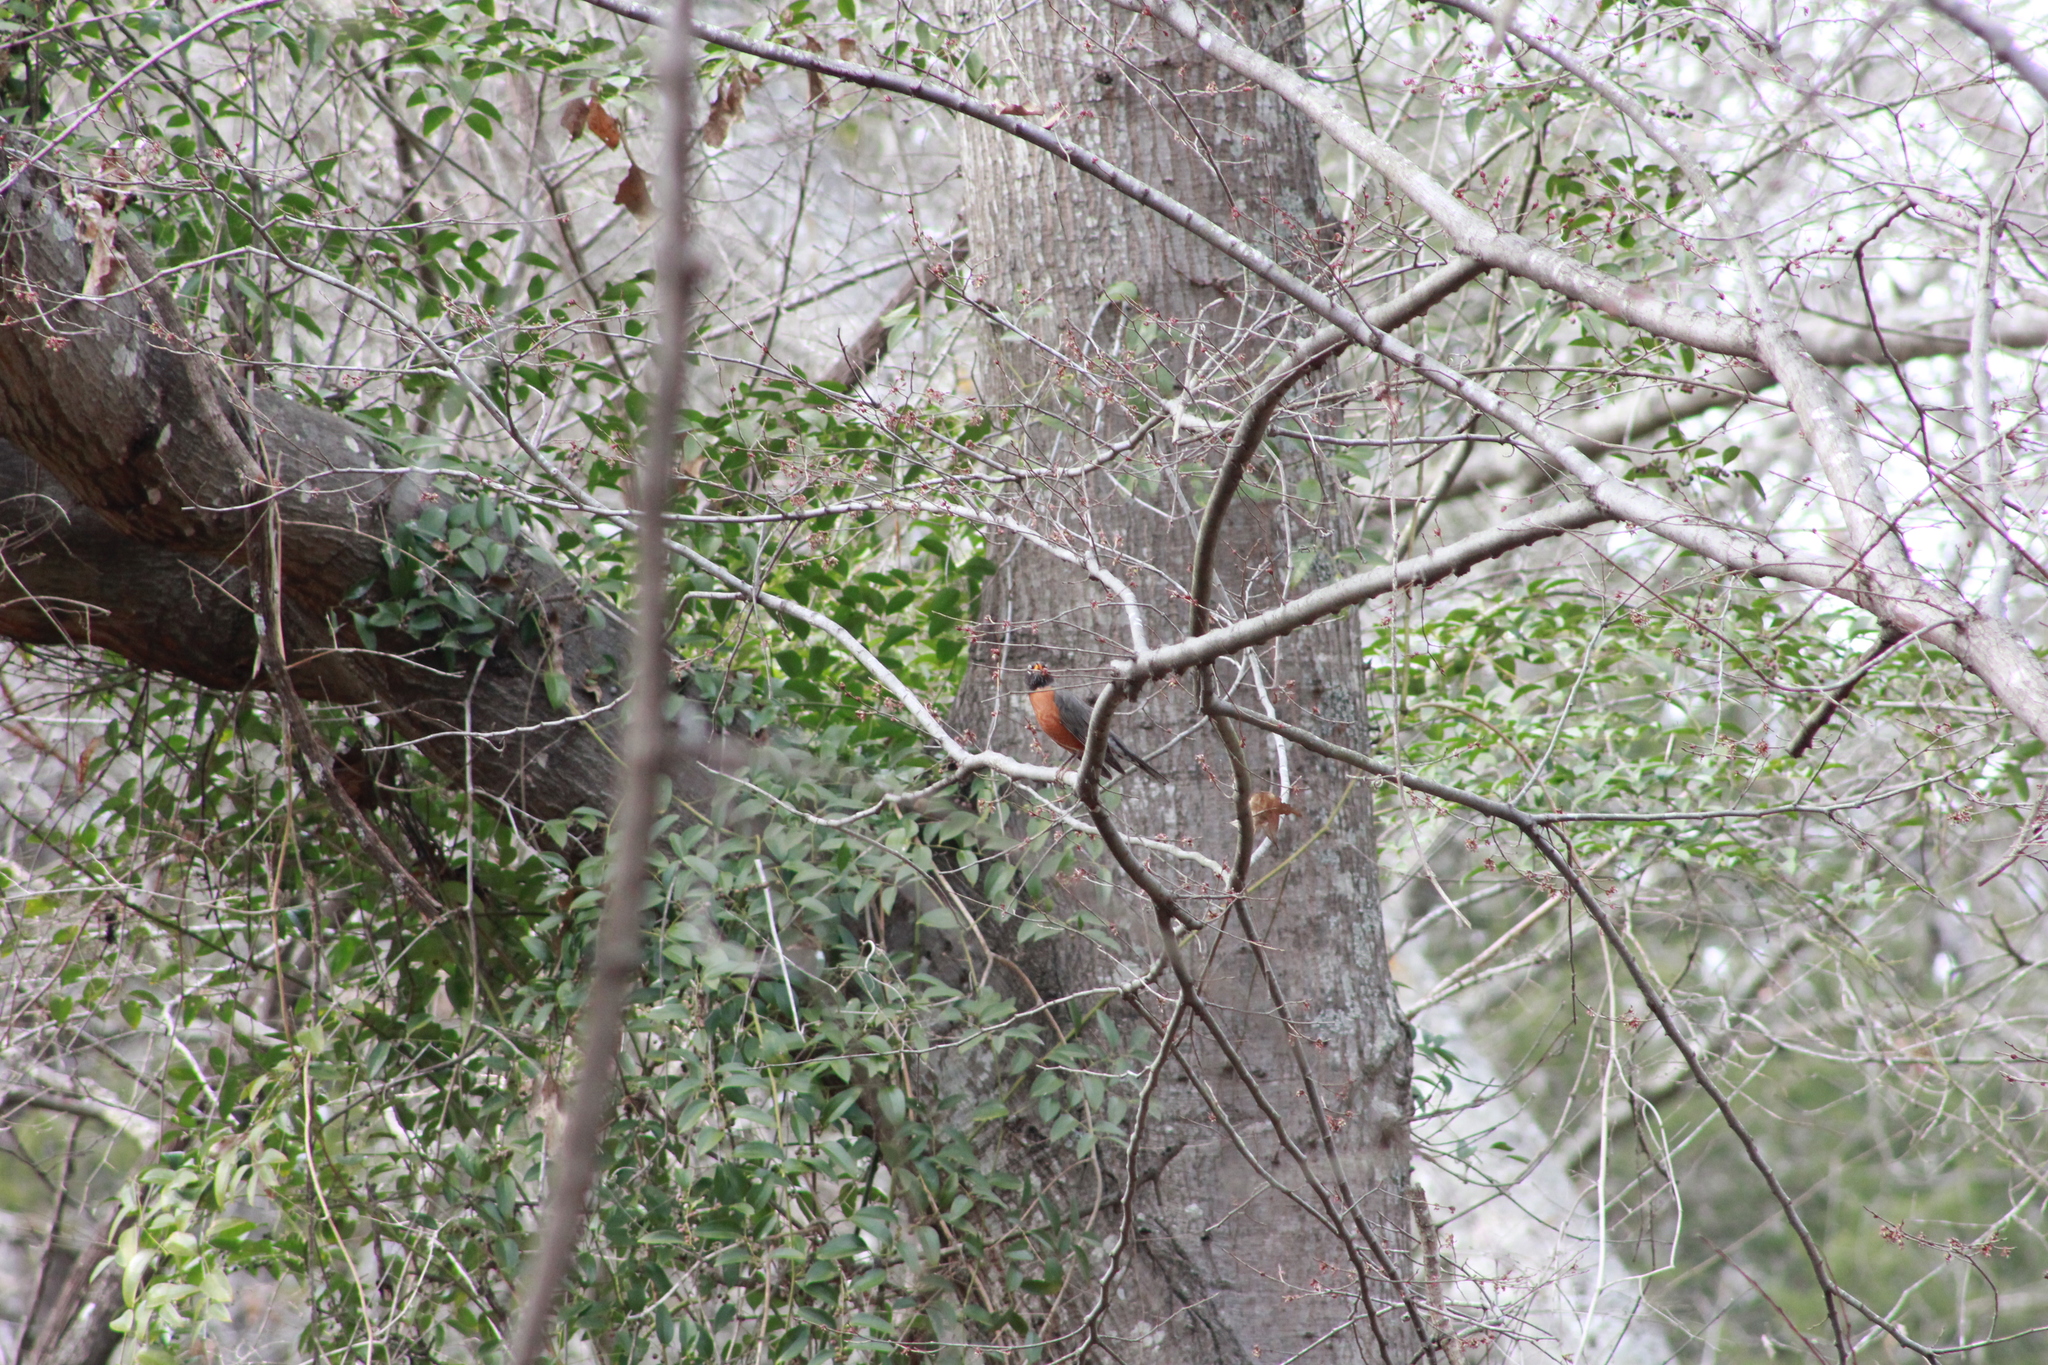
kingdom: Animalia
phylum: Chordata
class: Aves
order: Passeriformes
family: Turdidae
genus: Turdus
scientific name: Turdus migratorius
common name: American robin
